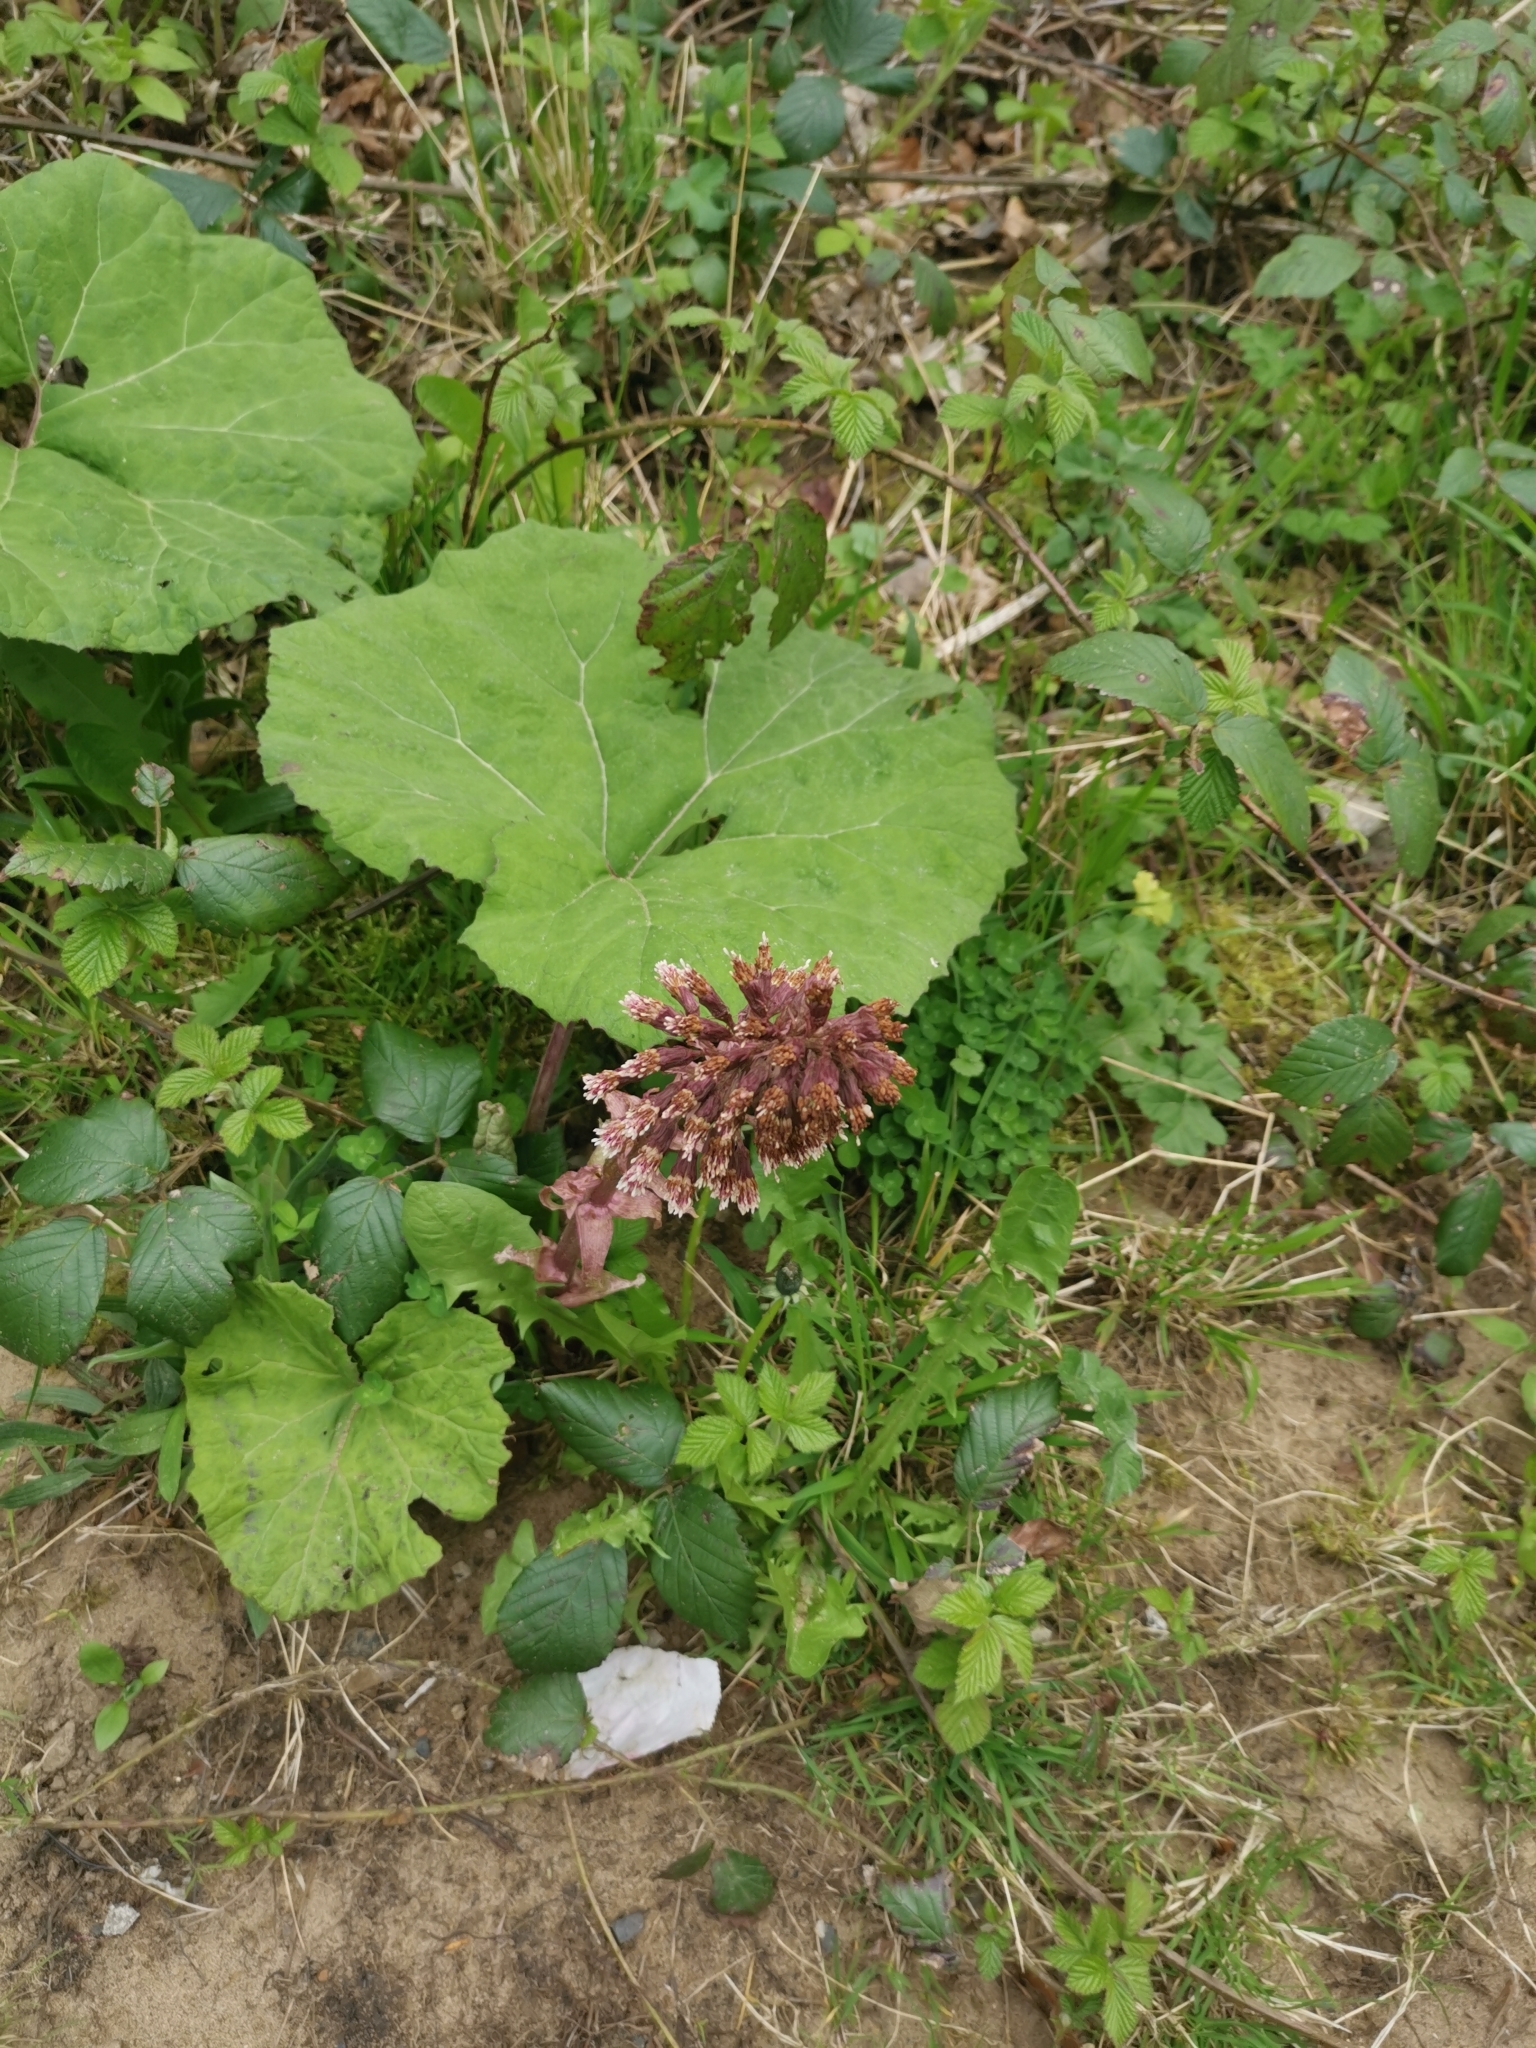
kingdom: Plantae
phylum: Tracheophyta
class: Magnoliopsida
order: Asterales
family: Asteraceae
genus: Petasites
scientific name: Petasites hybridus
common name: Butterbur
